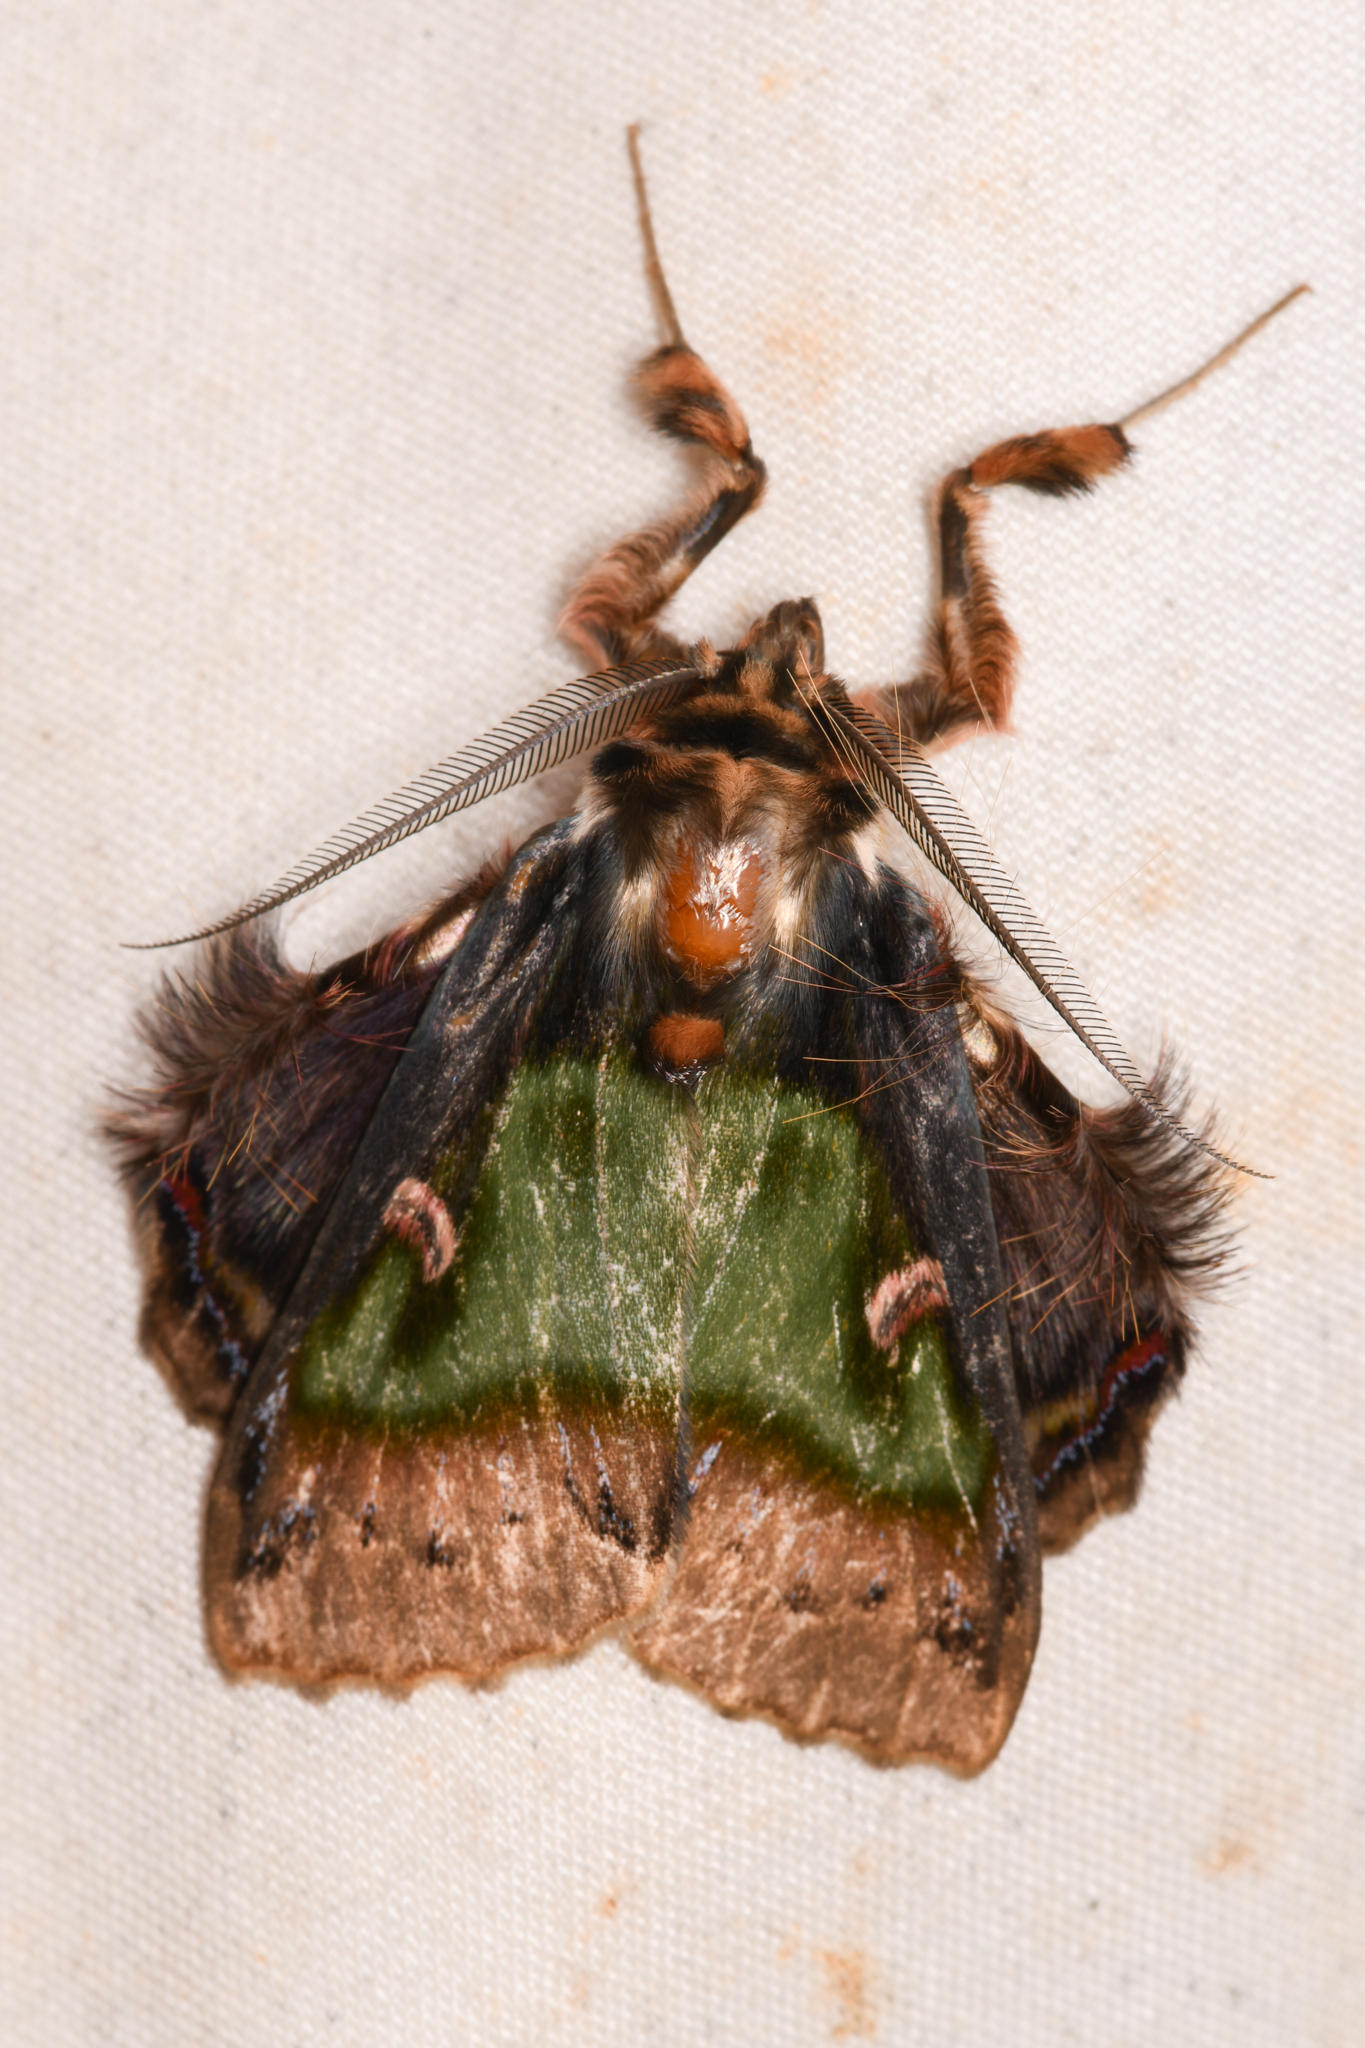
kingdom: Animalia
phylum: Arthropoda
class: Insecta
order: Lepidoptera
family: Erebidae
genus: Ceroctena
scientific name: Ceroctena amynta
